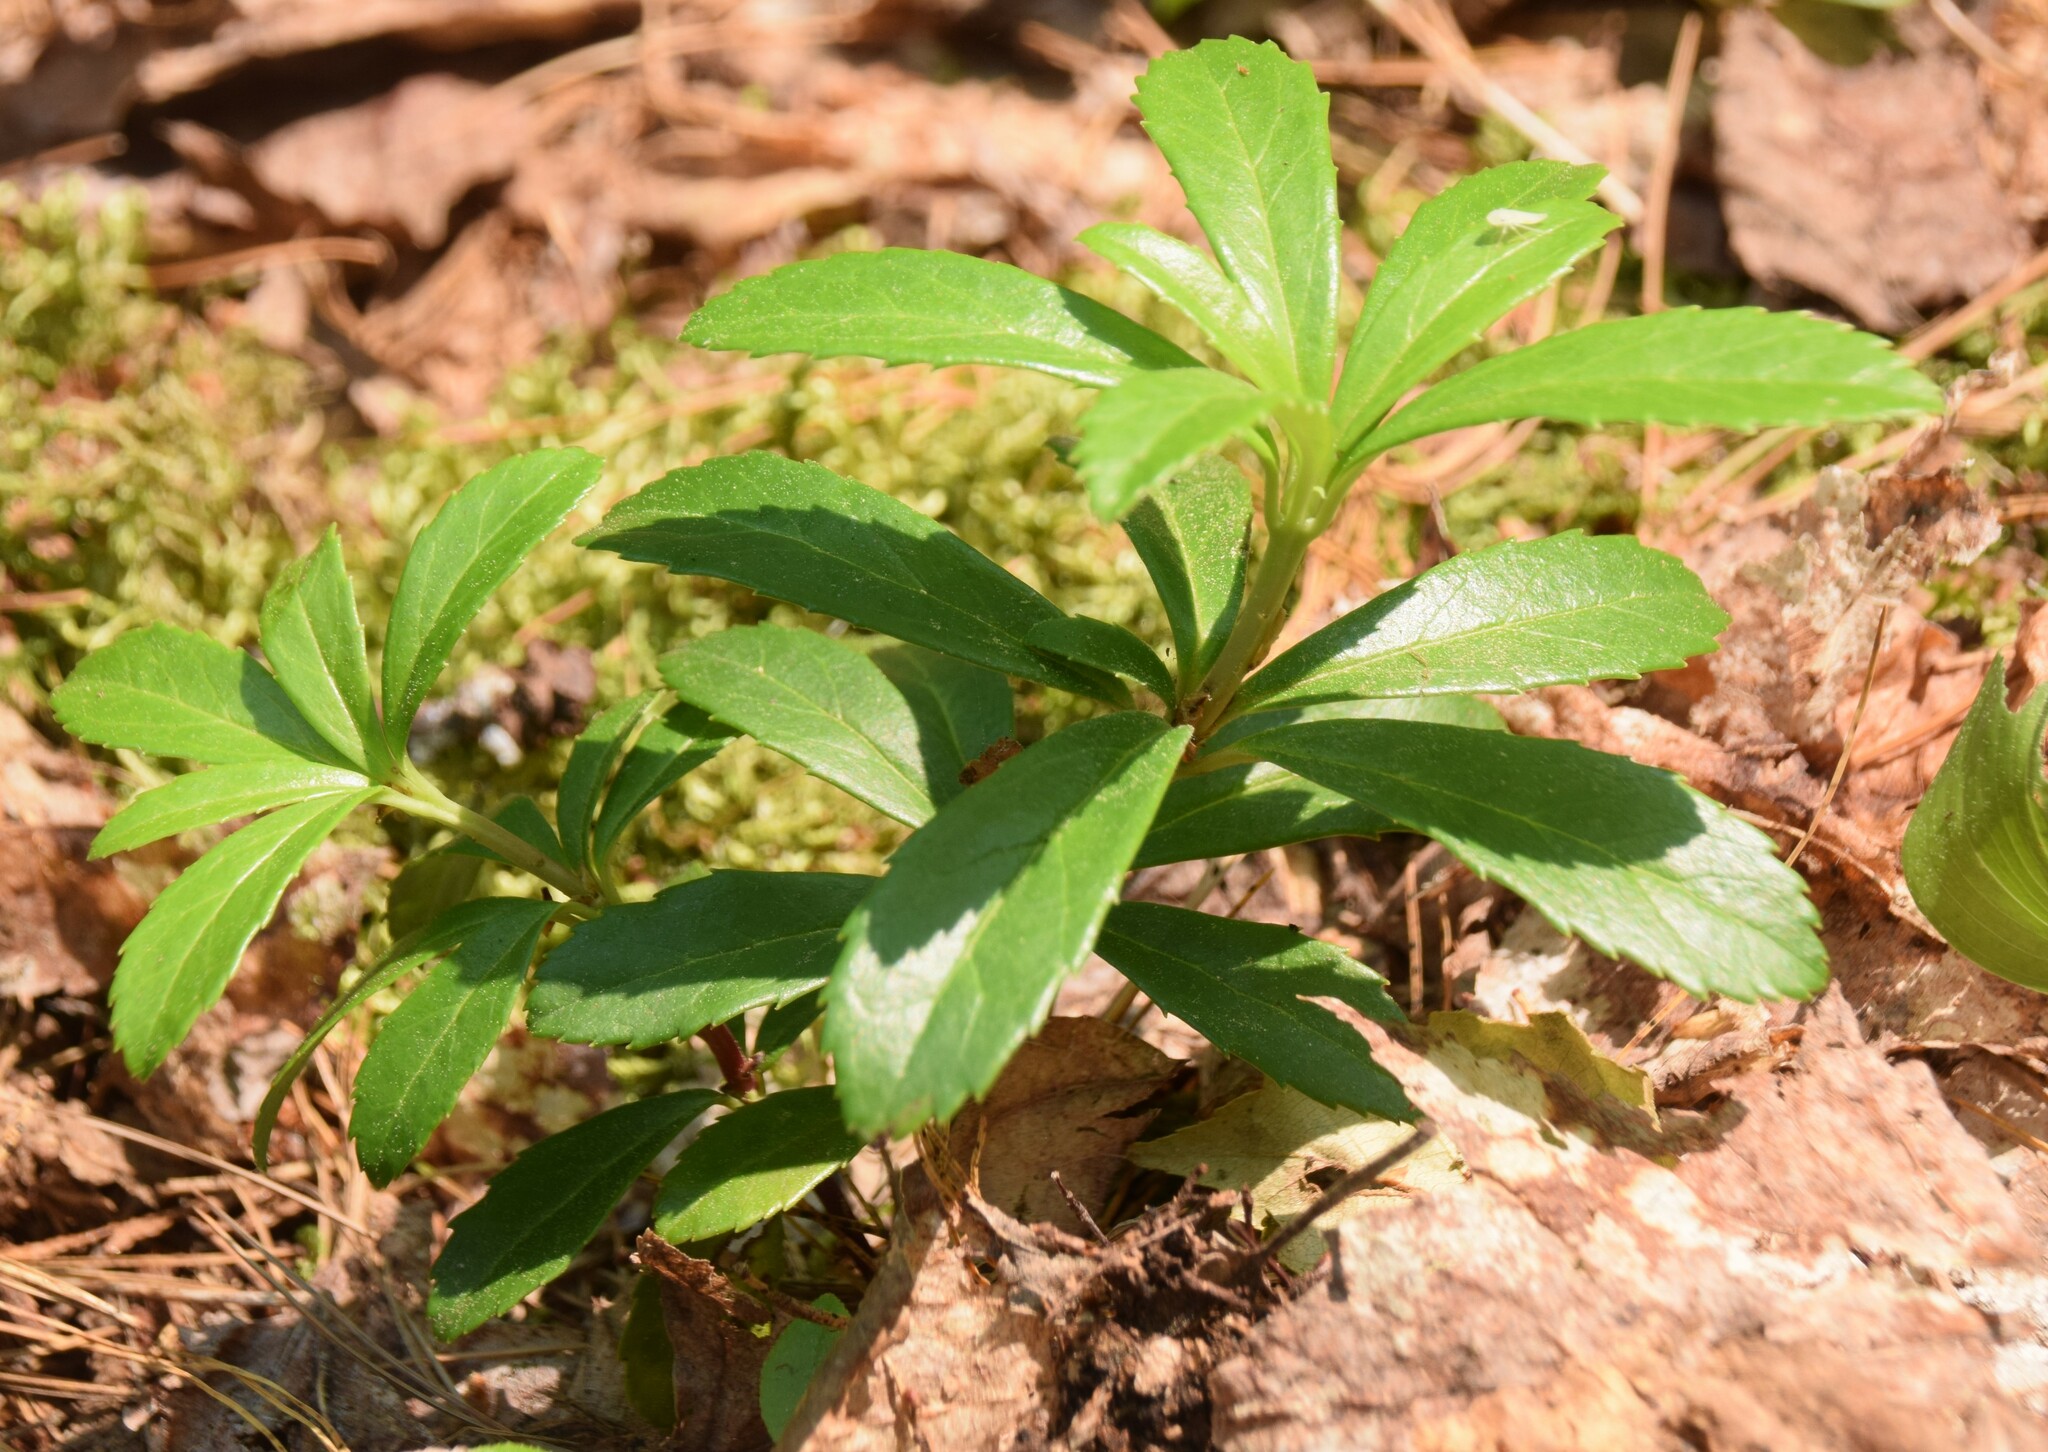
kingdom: Plantae
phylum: Tracheophyta
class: Magnoliopsida
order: Ericales
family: Ericaceae
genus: Chimaphila
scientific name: Chimaphila umbellata
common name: Pipsissewa
